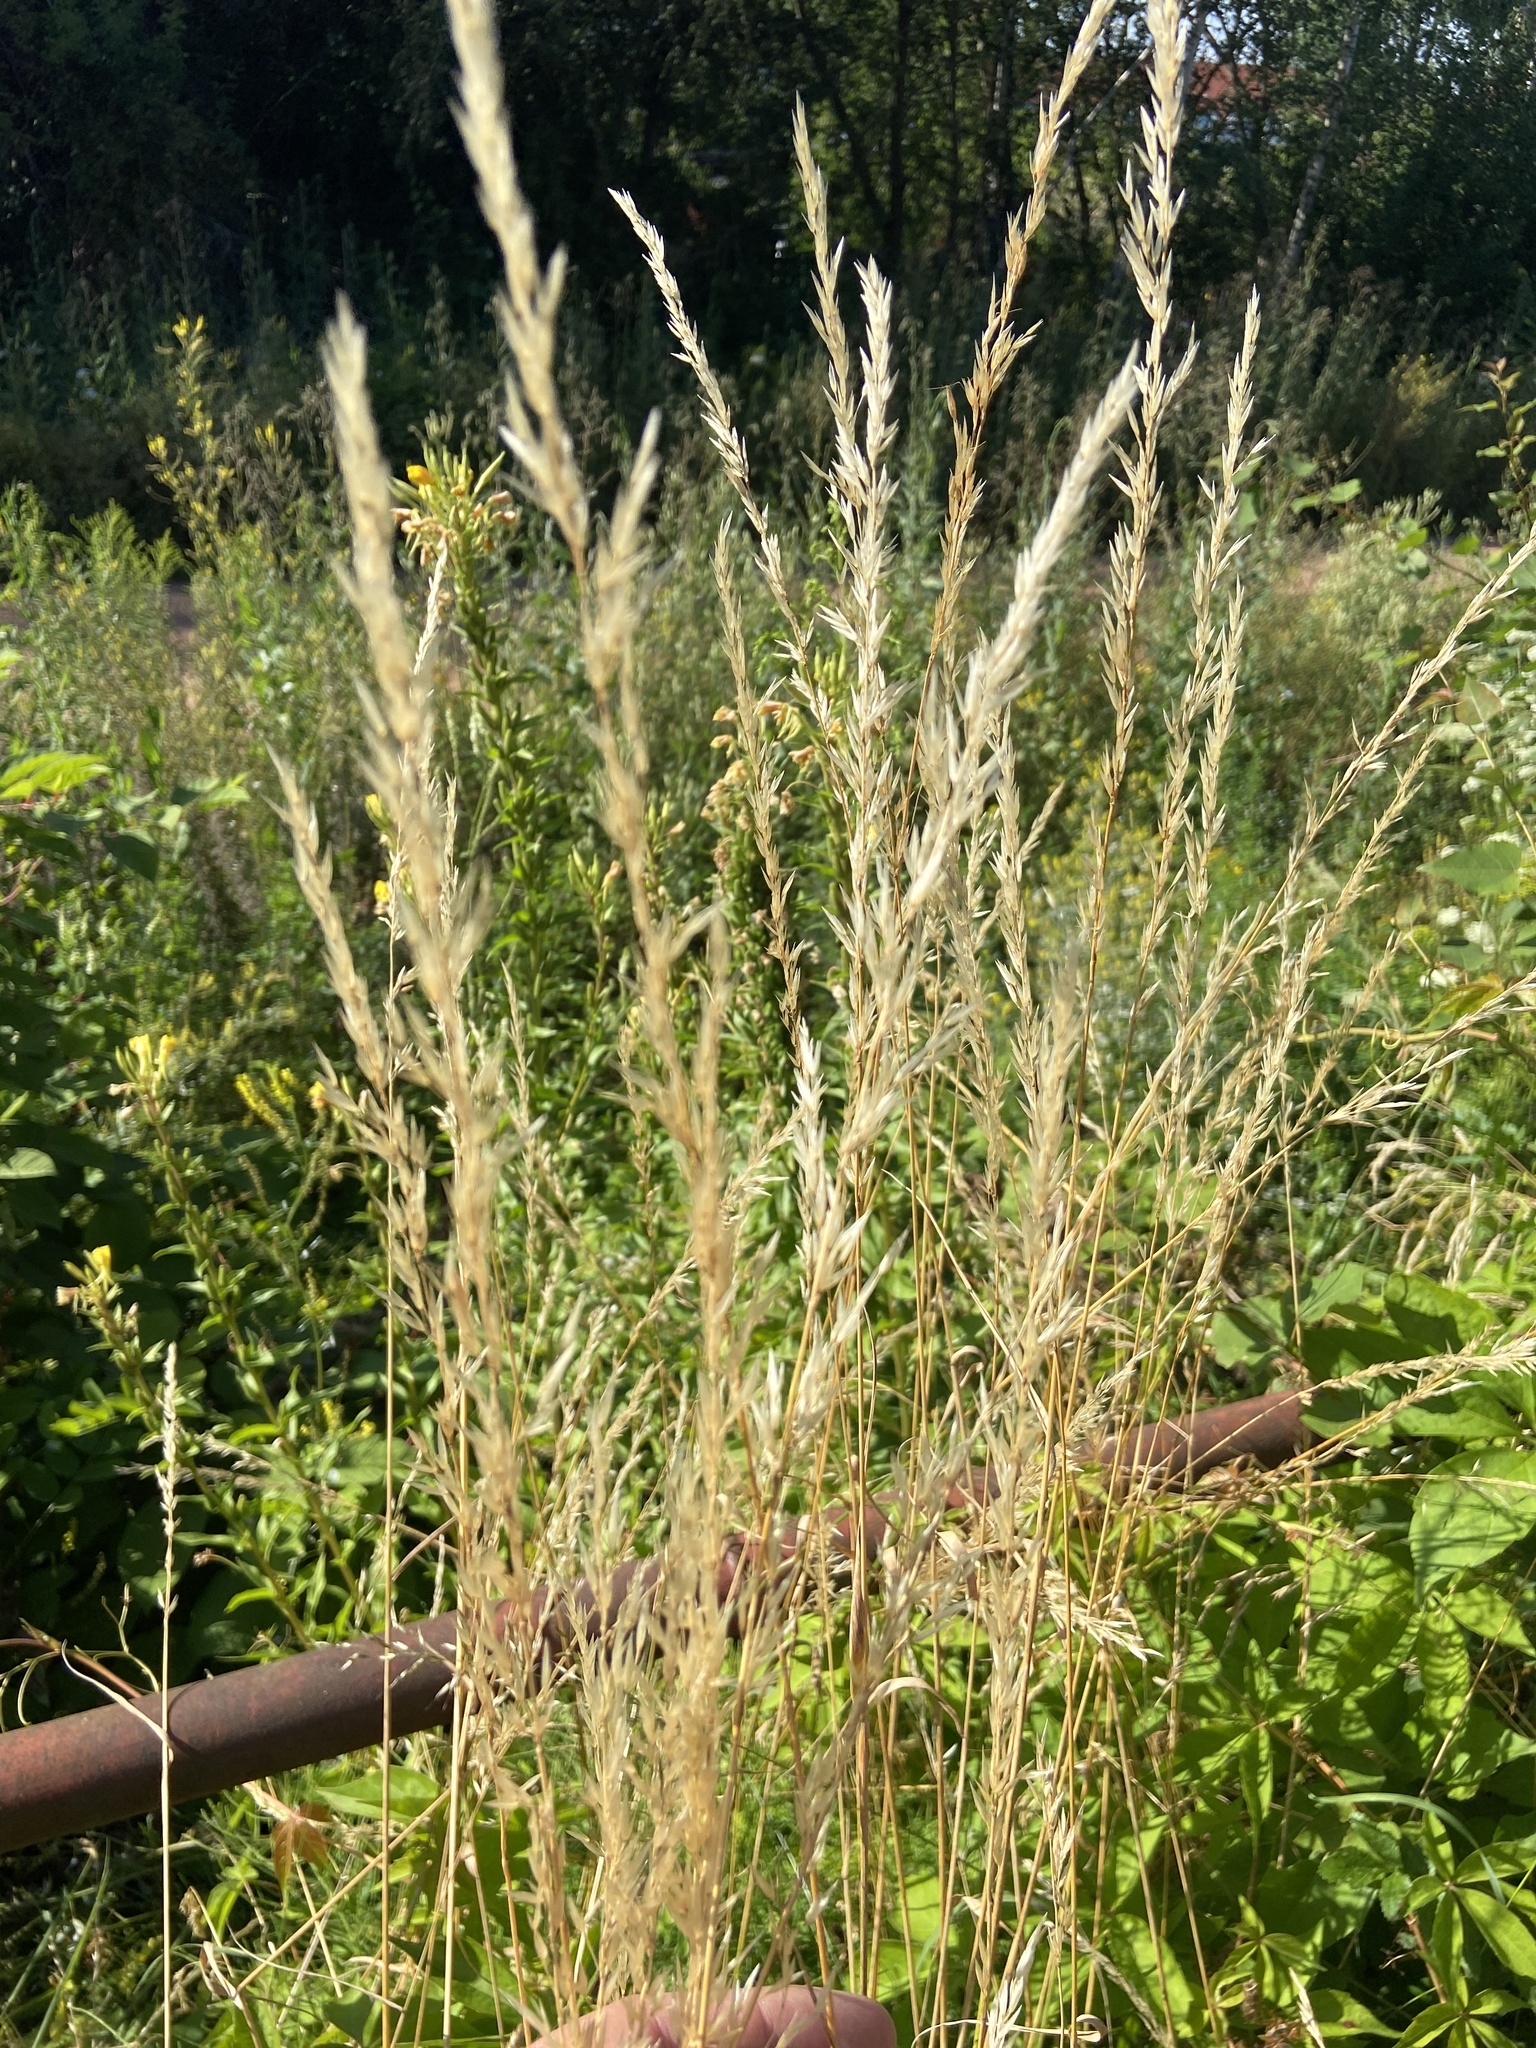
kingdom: Plantae
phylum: Tracheophyta
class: Liliopsida
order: Poales
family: Poaceae
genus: Arrhenatherum
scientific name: Arrhenatherum elatius
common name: Tall oatgrass
